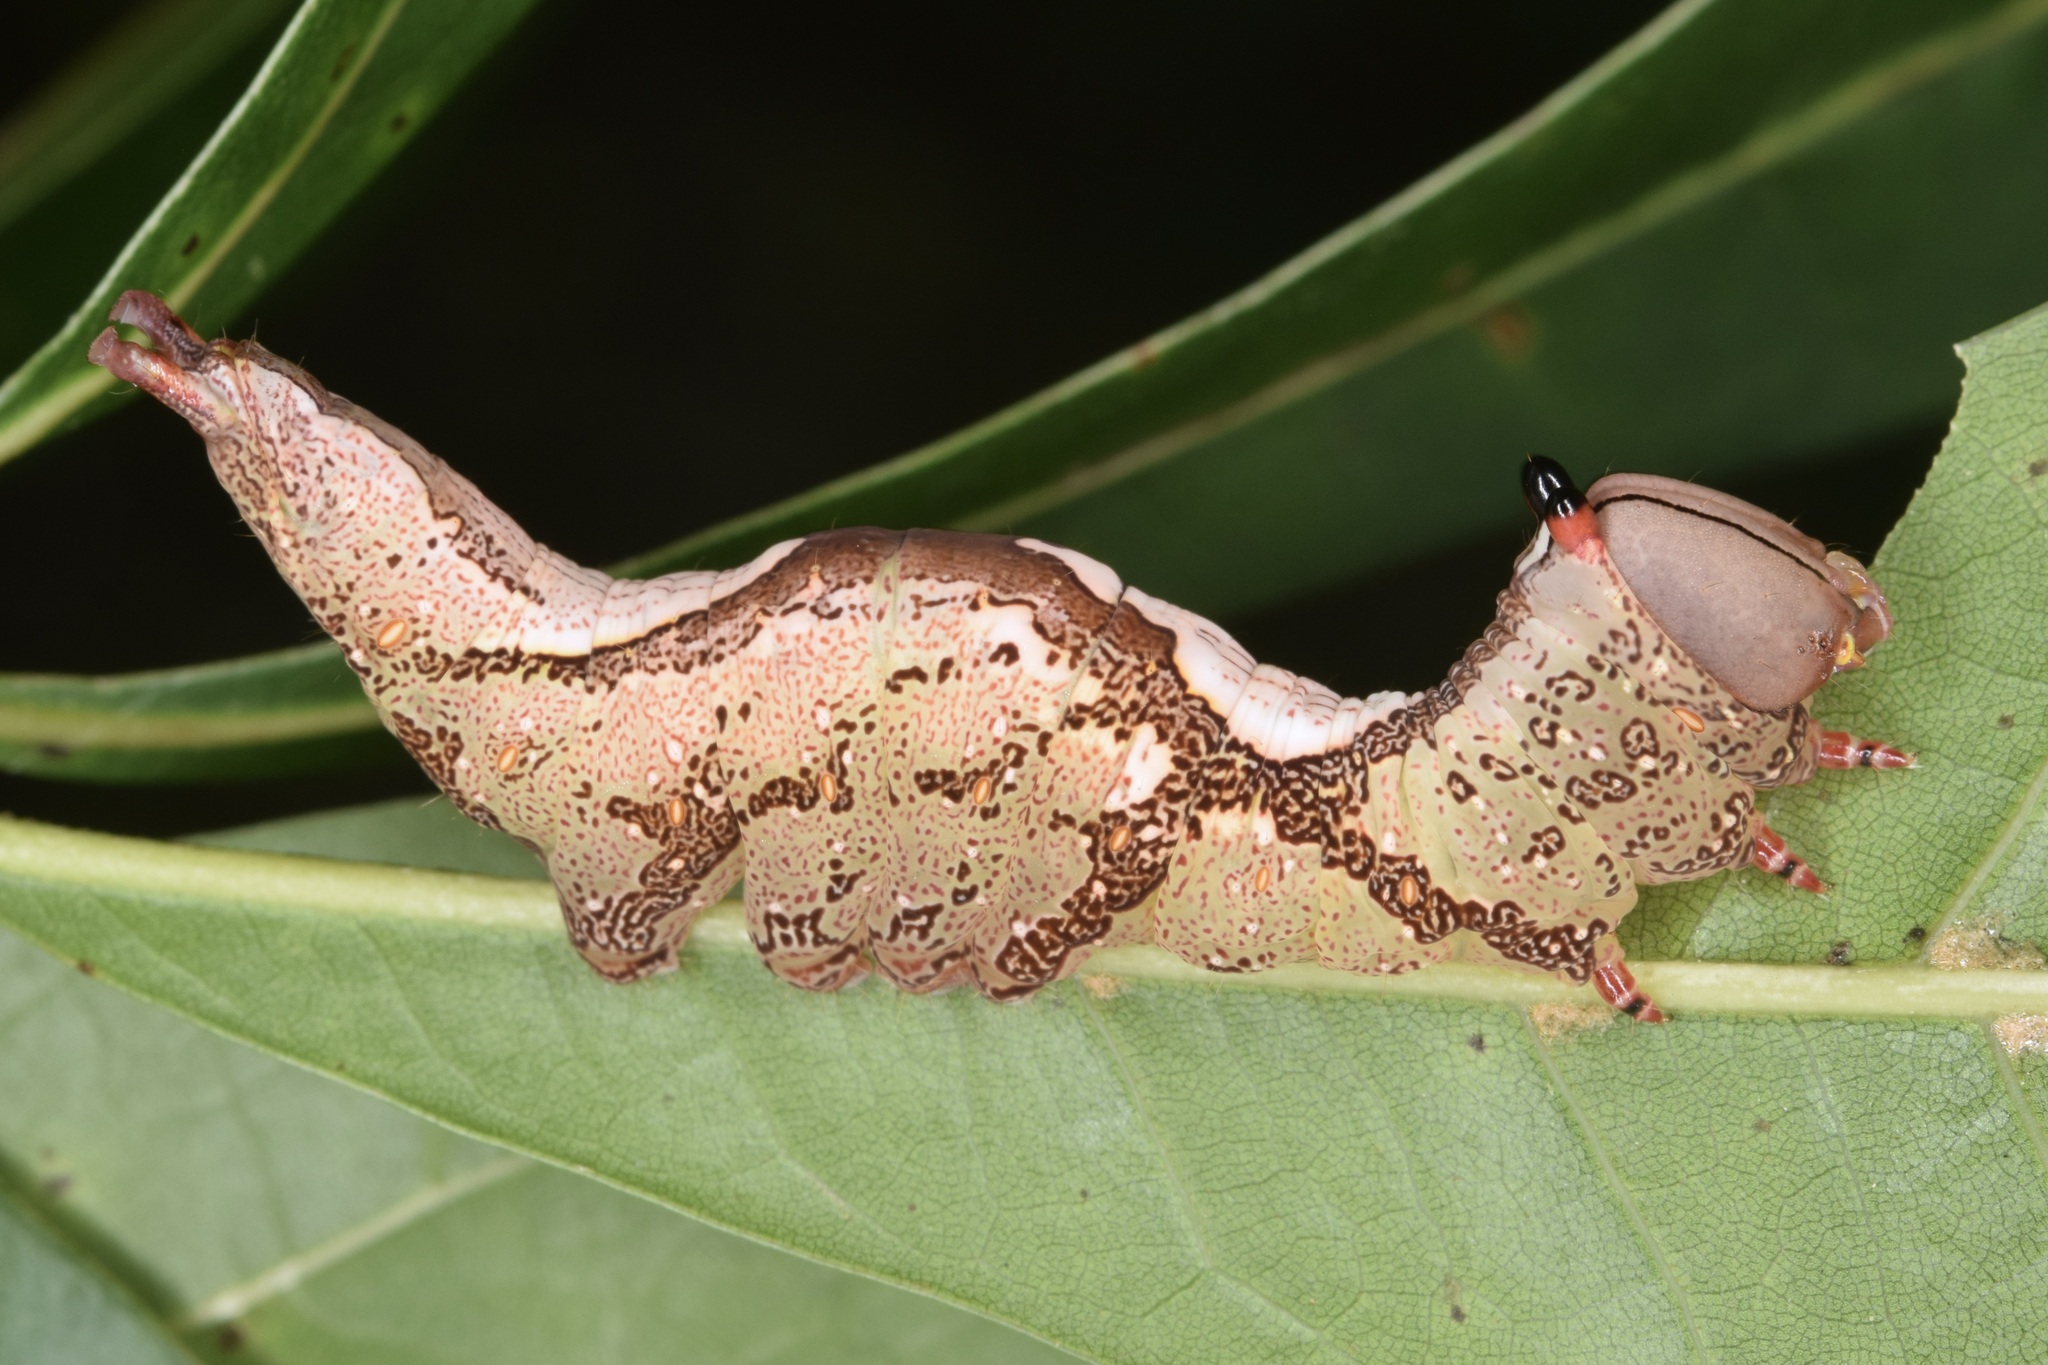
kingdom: Animalia
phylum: Arthropoda
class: Insecta
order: Lepidoptera
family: Notodontidae
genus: Heterocampa
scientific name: Heterocampa
